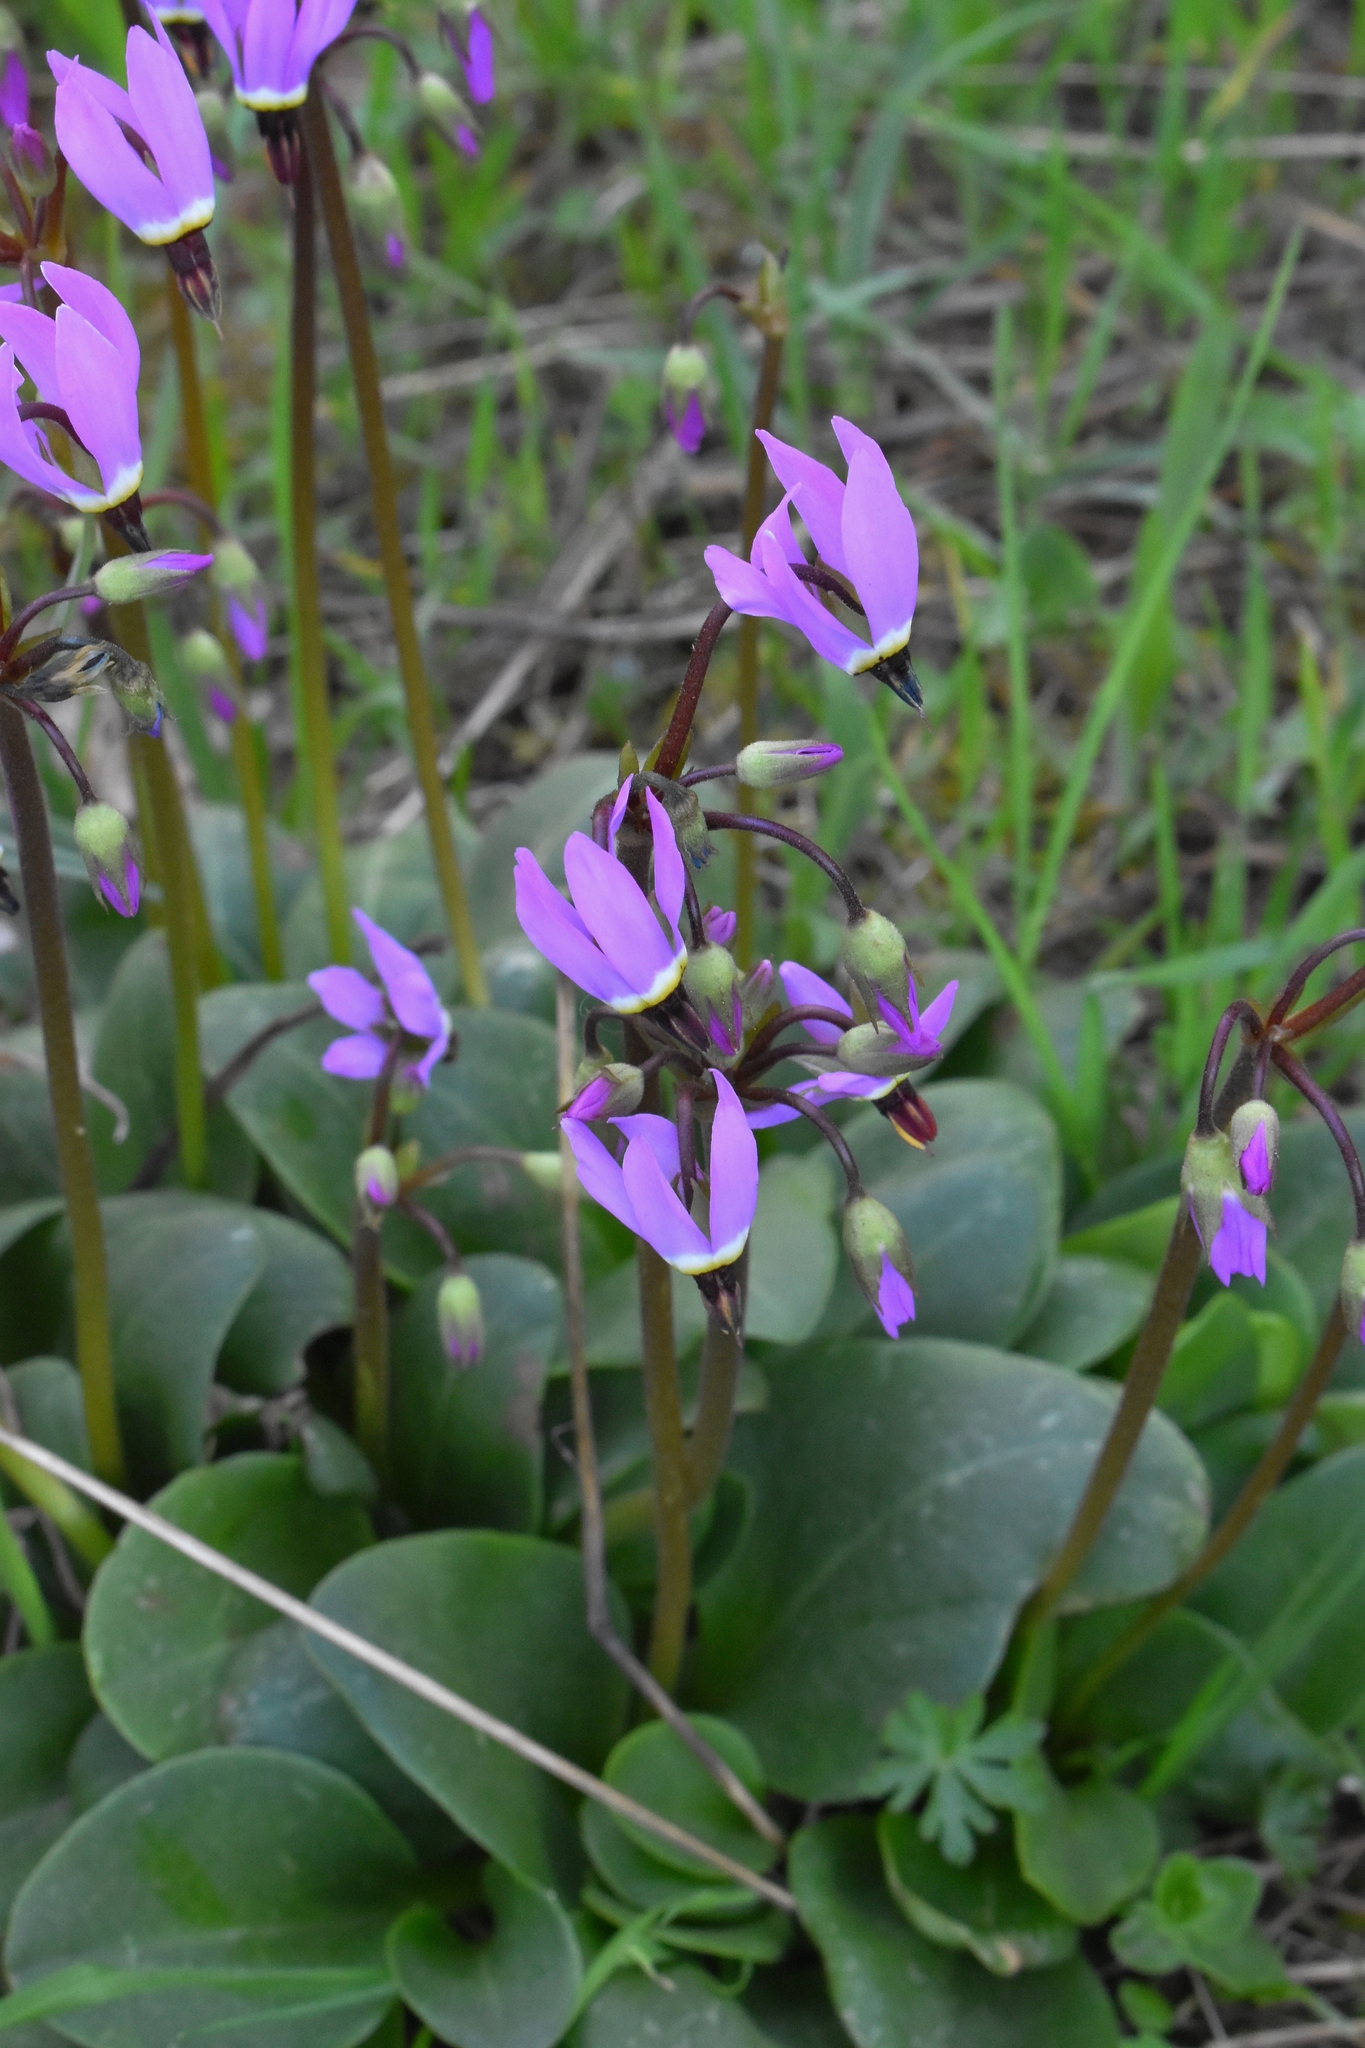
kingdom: Plantae
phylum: Tracheophyta
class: Magnoliopsida
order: Ericales
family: Primulaceae
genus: Dodecatheon
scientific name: Dodecatheon hendersonii
